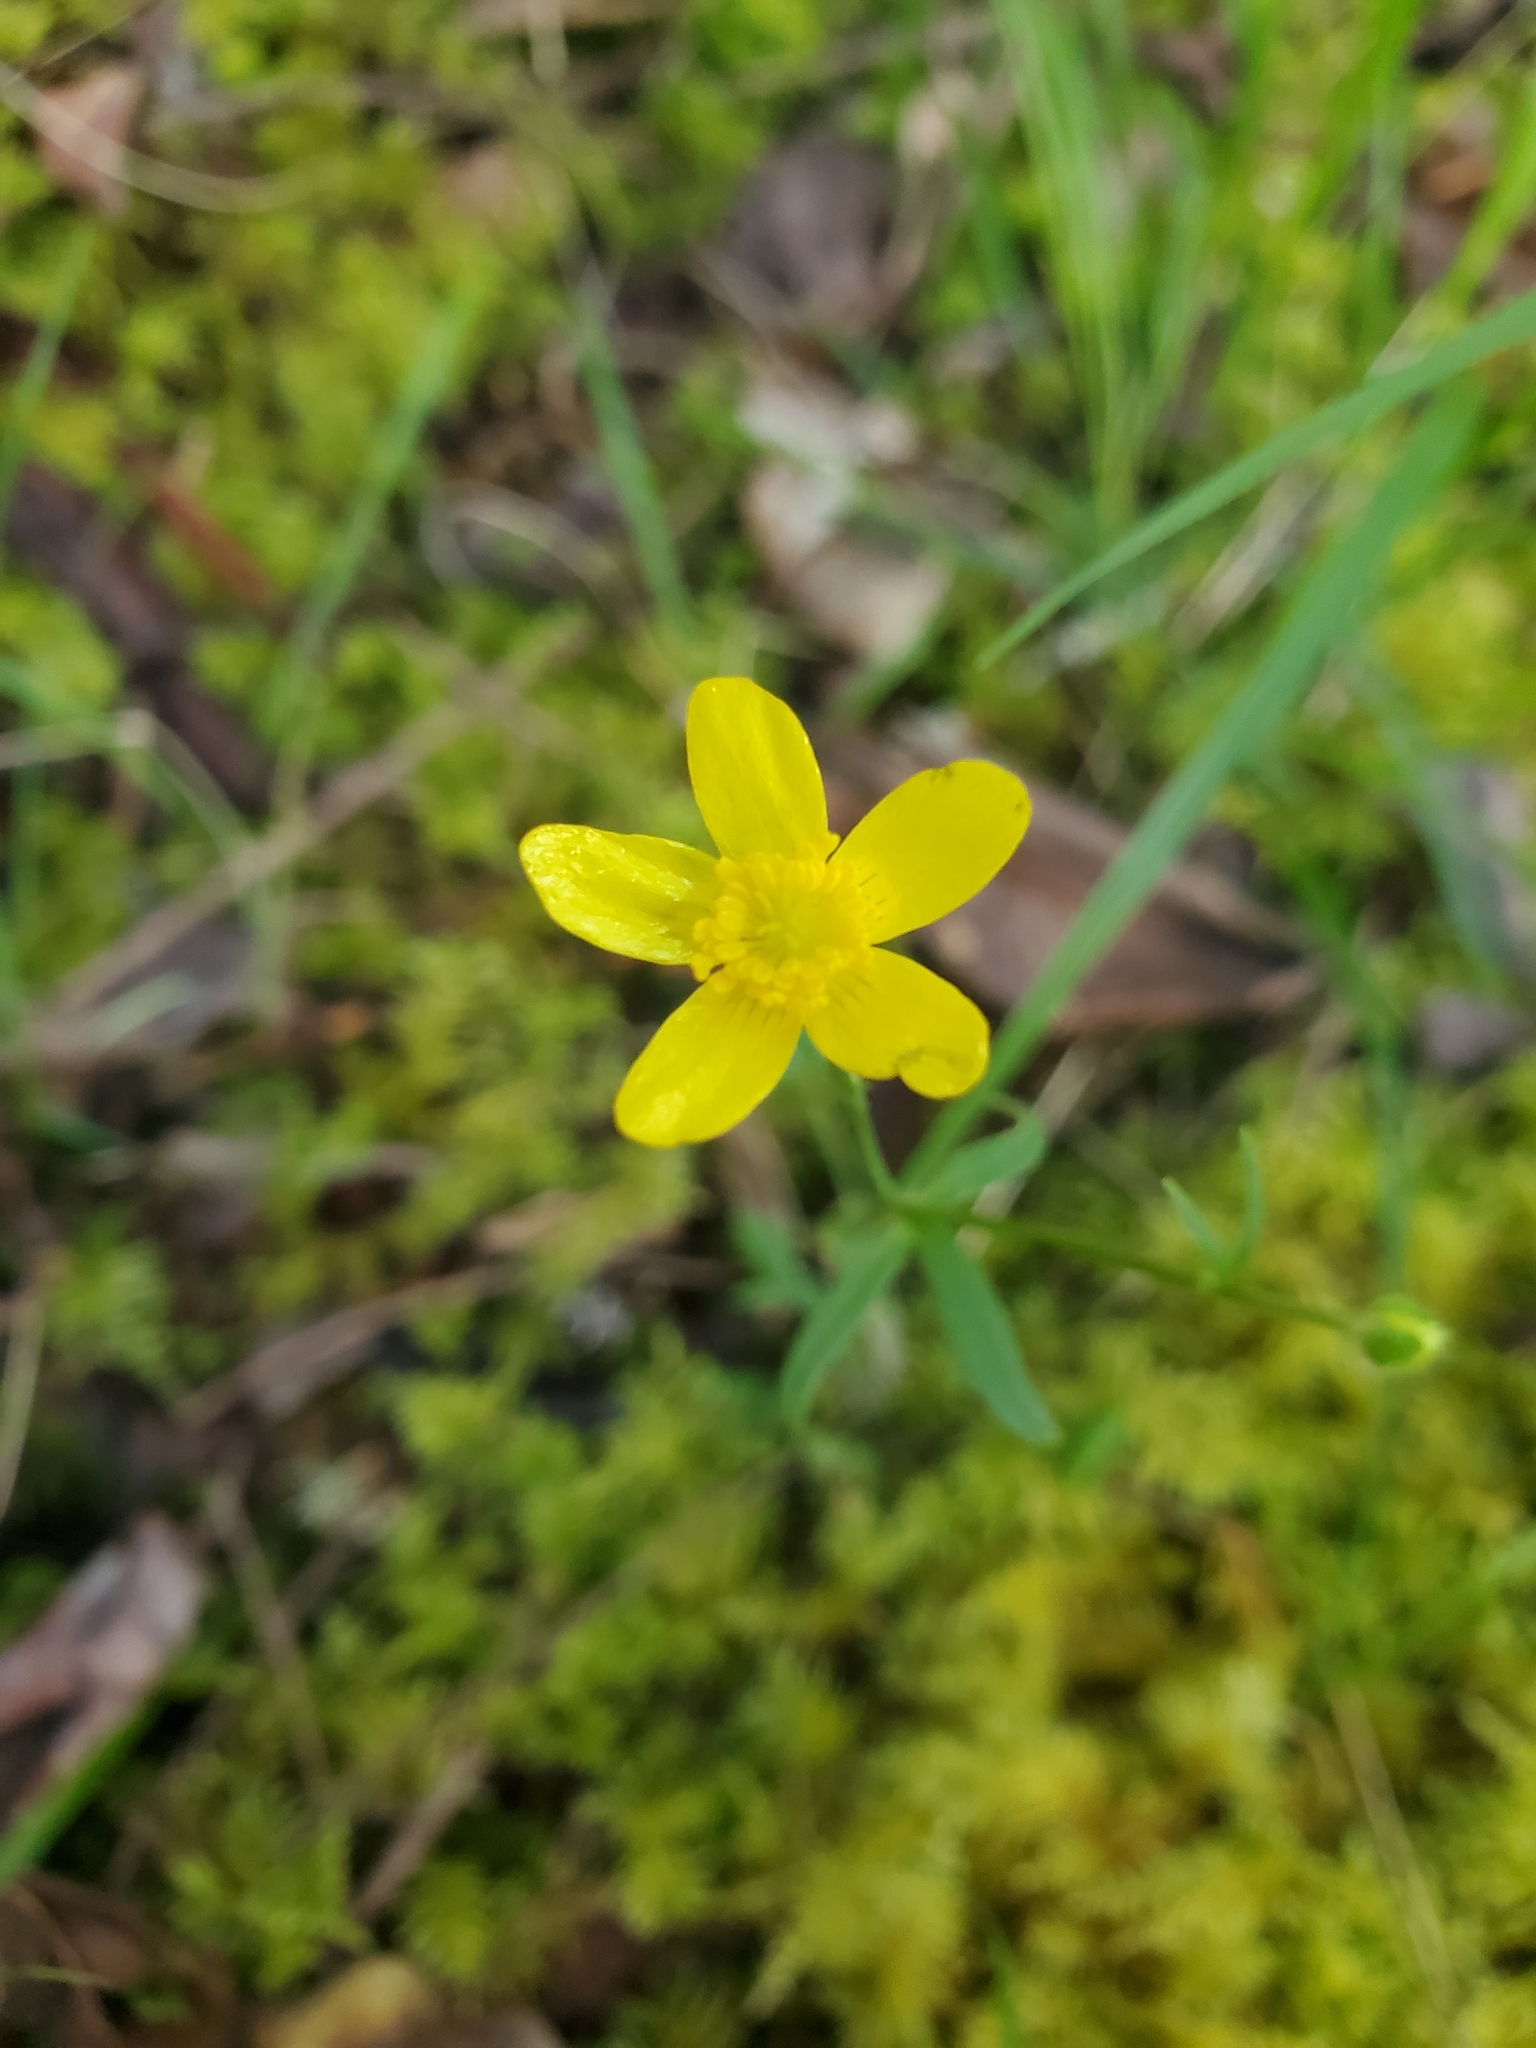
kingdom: Plantae
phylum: Tracheophyta
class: Magnoliopsida
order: Ranunculales
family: Ranunculaceae
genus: Ranunculus
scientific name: Ranunculus occidentalis
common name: Western buttercup
